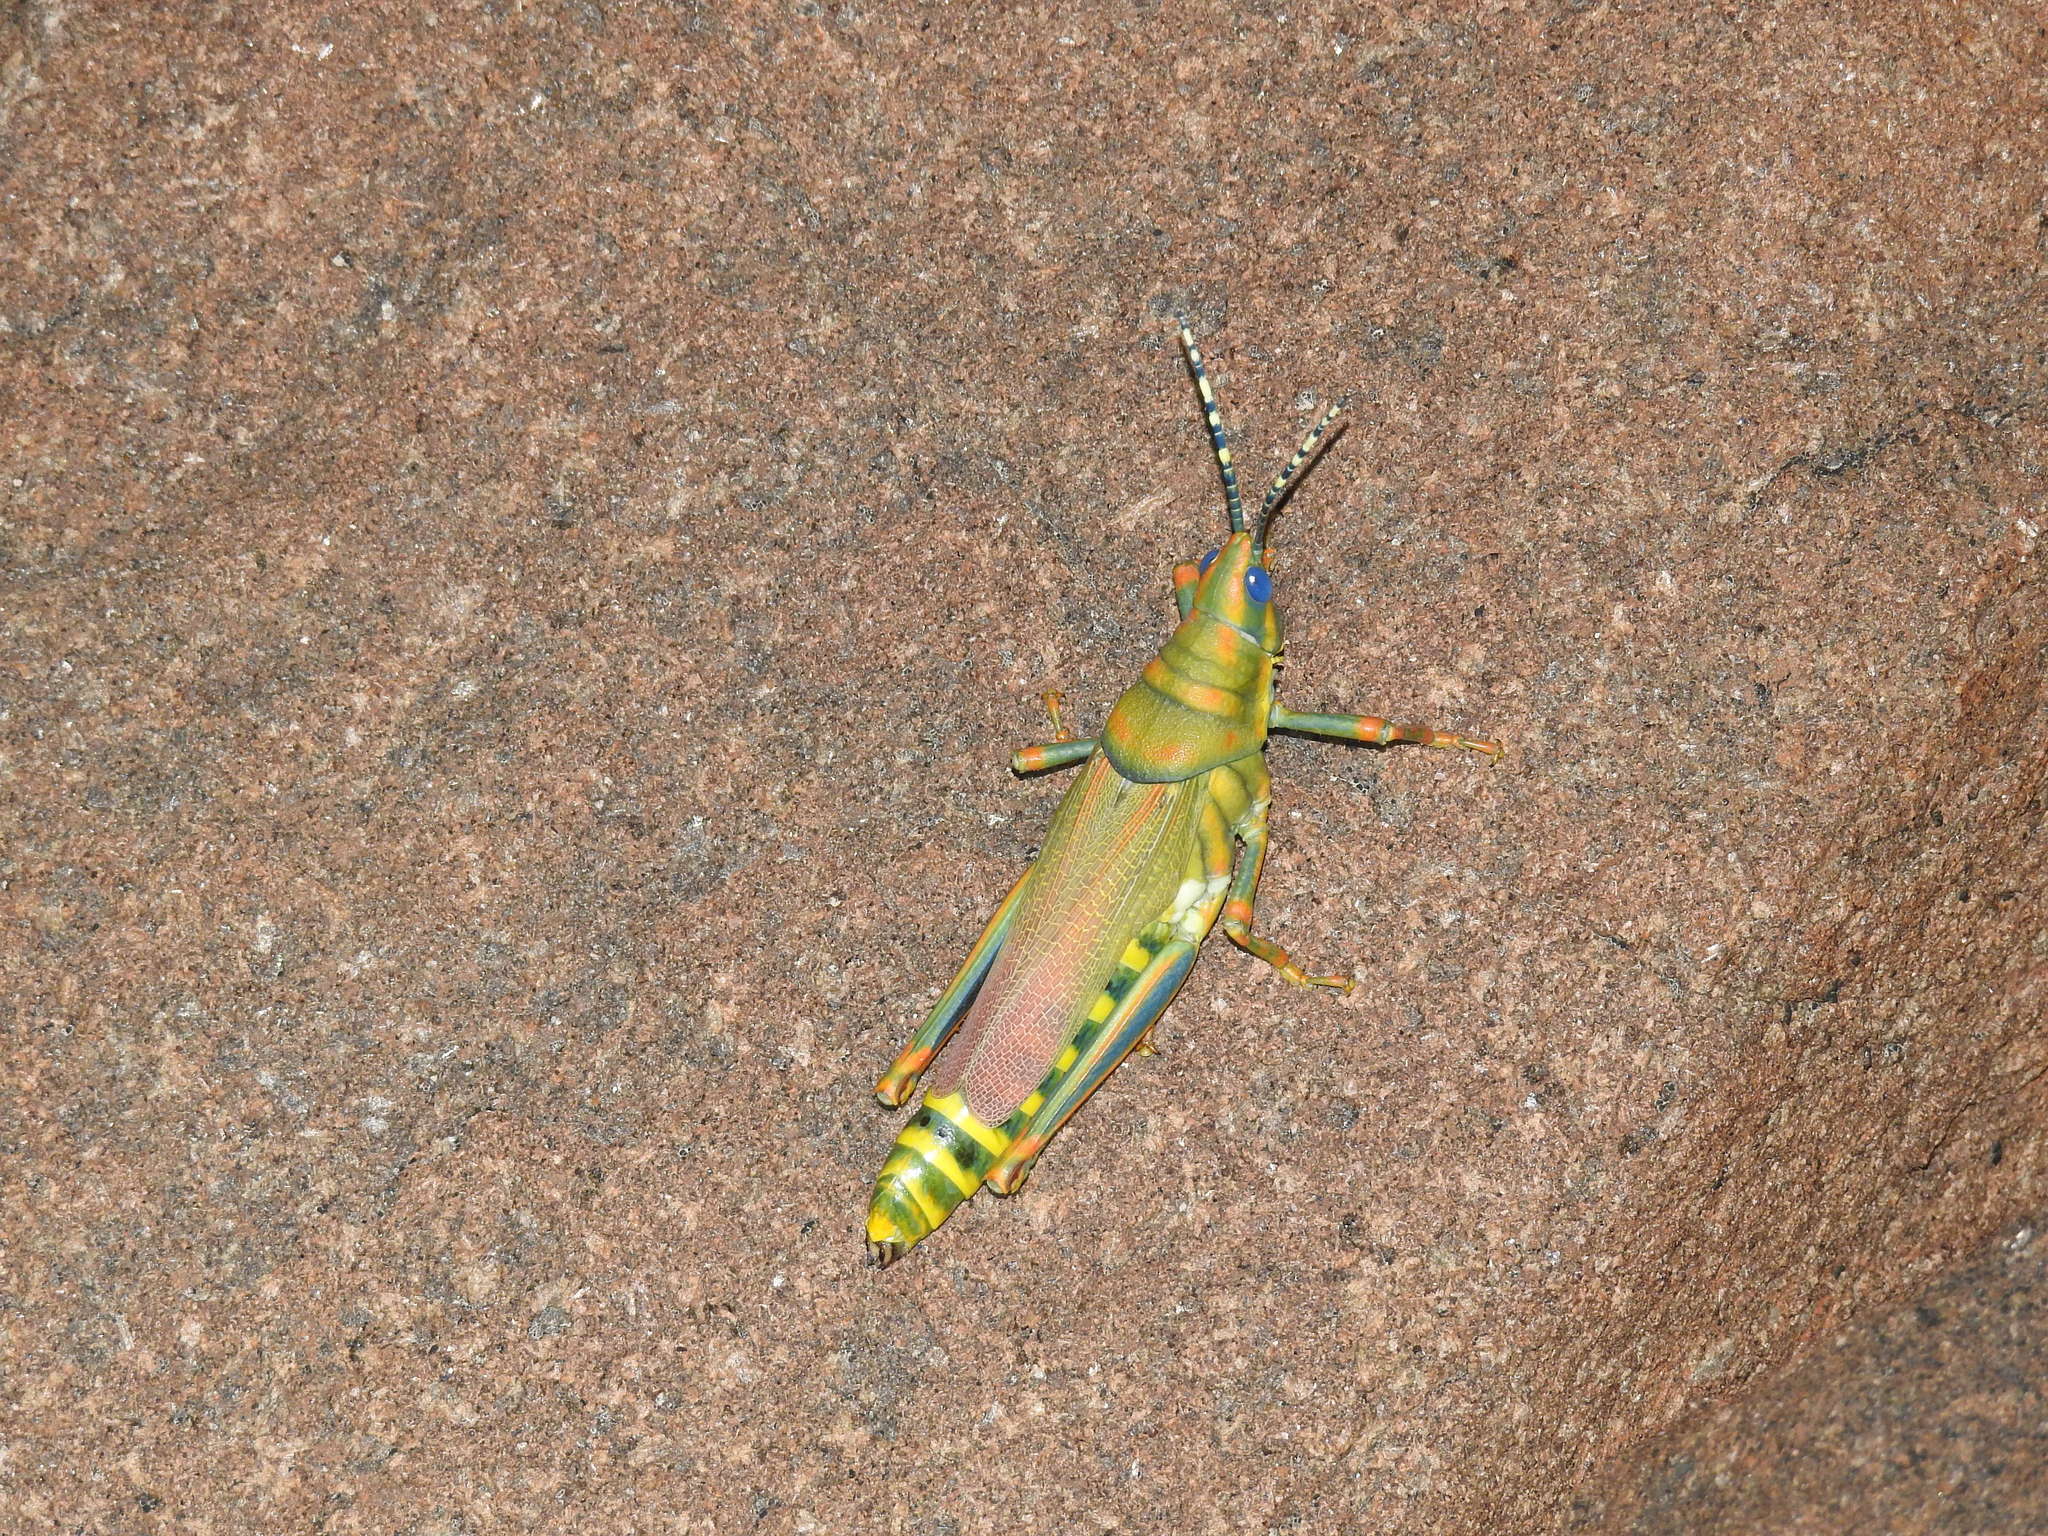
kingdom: Animalia
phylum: Arthropoda
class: Insecta
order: Orthoptera
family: Pyrgomorphidae
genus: Poekilocerus
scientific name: Poekilocerus pictus
